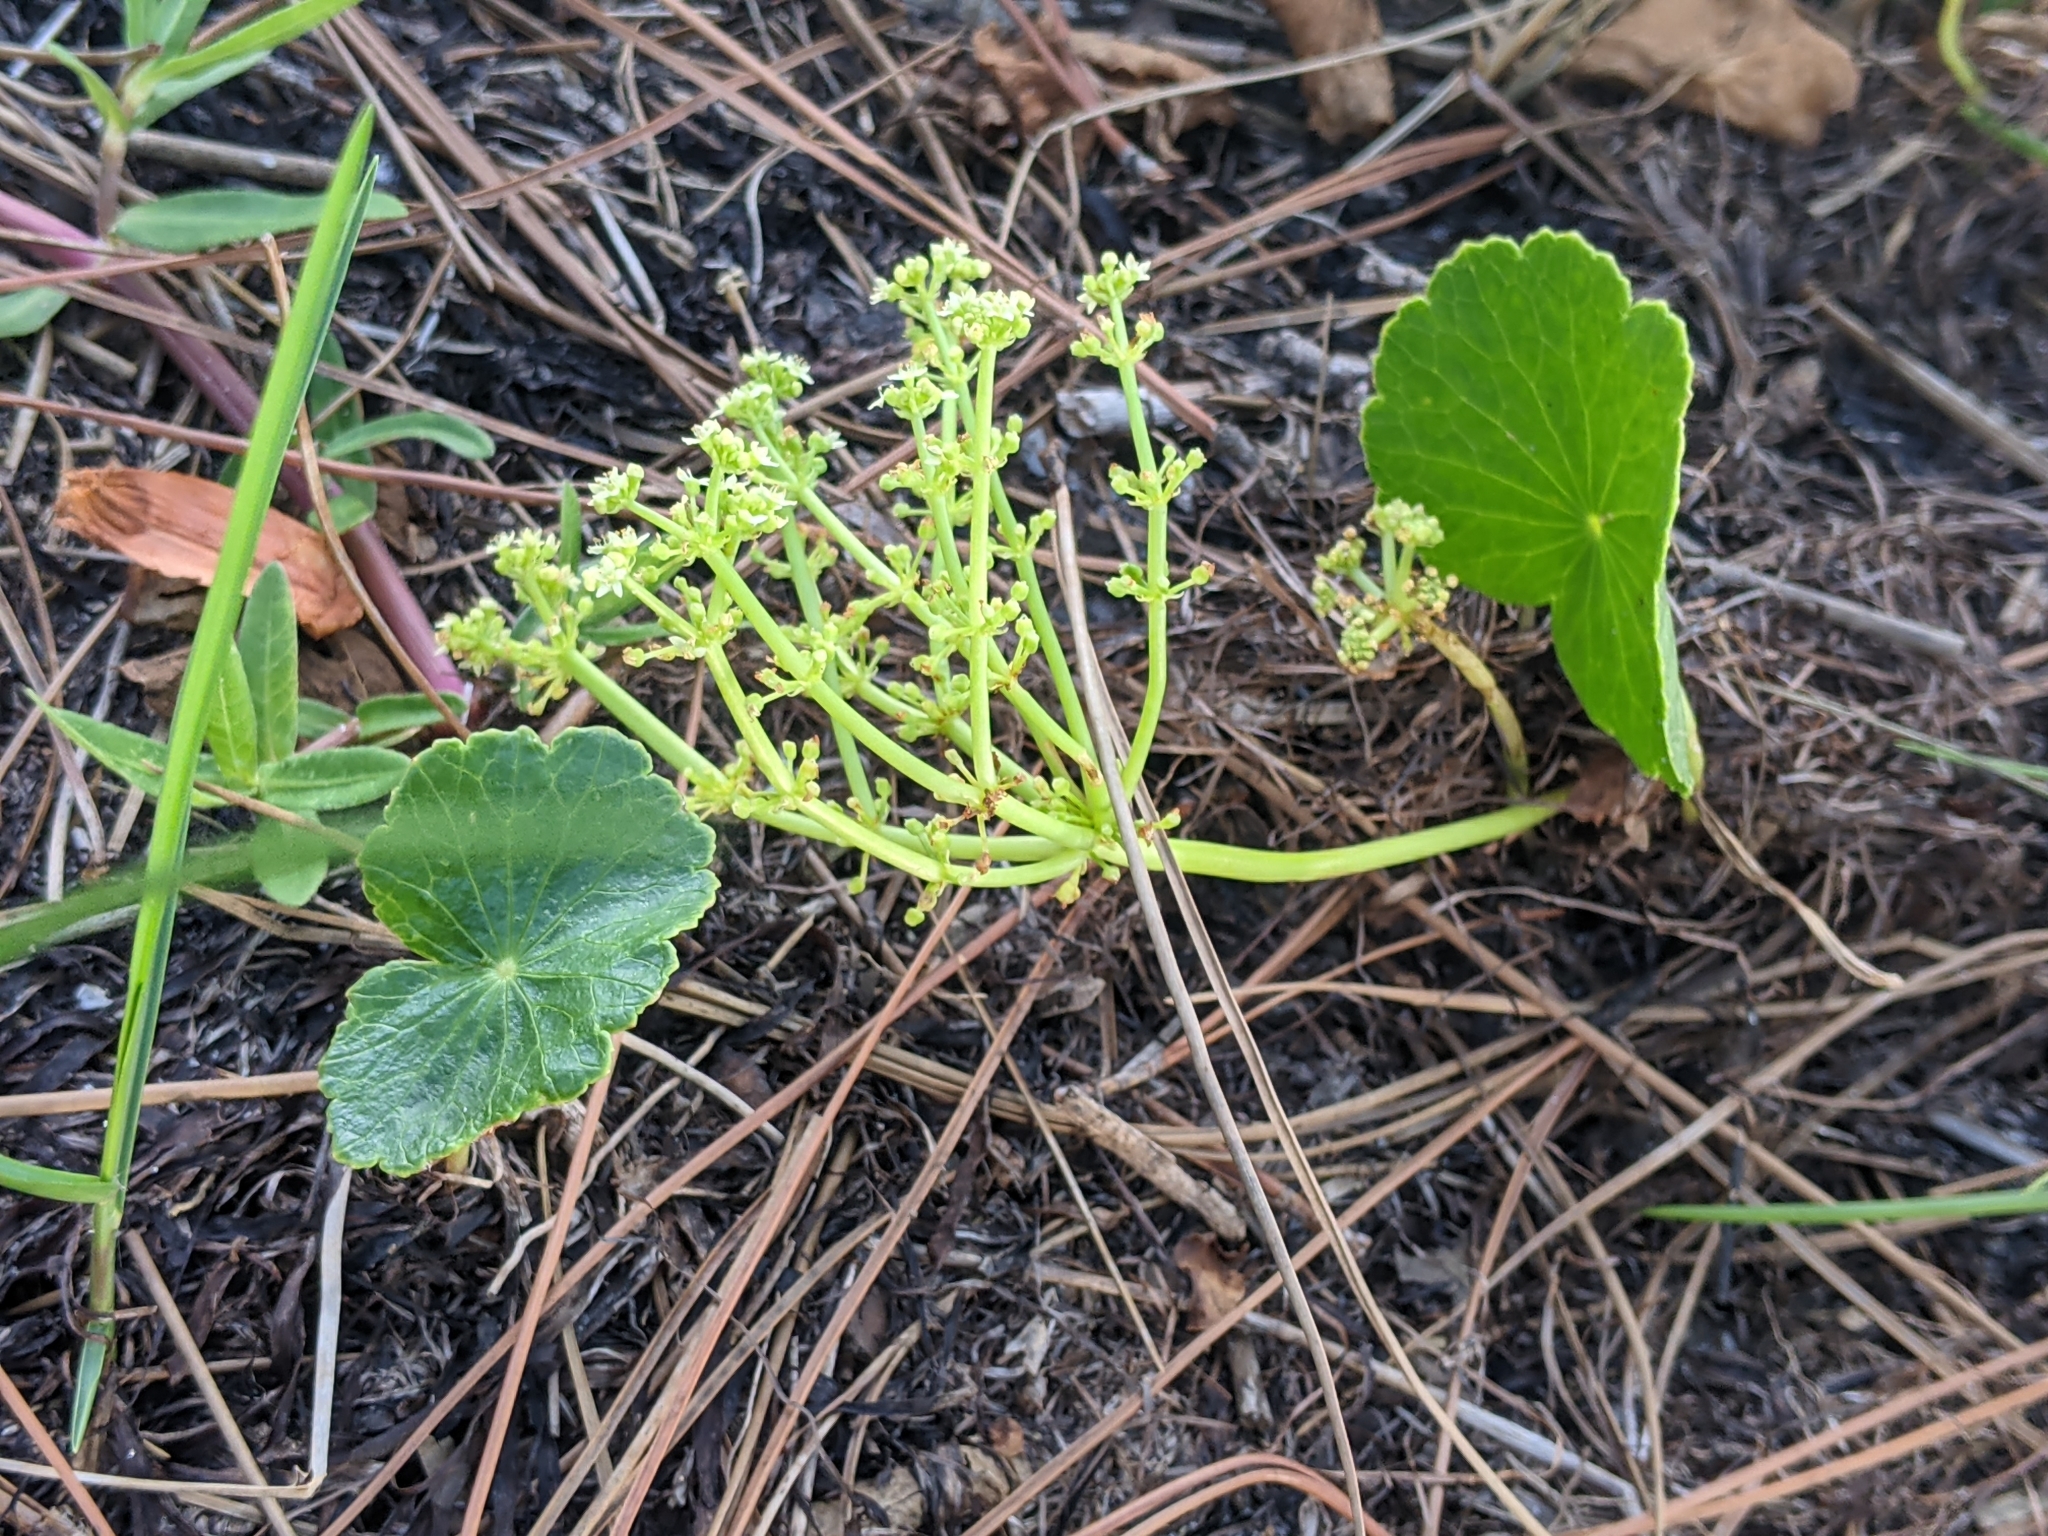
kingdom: Plantae
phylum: Tracheophyta
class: Magnoliopsida
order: Apiales
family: Araliaceae
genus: Hydrocotyle
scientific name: Hydrocotyle bonariensis
